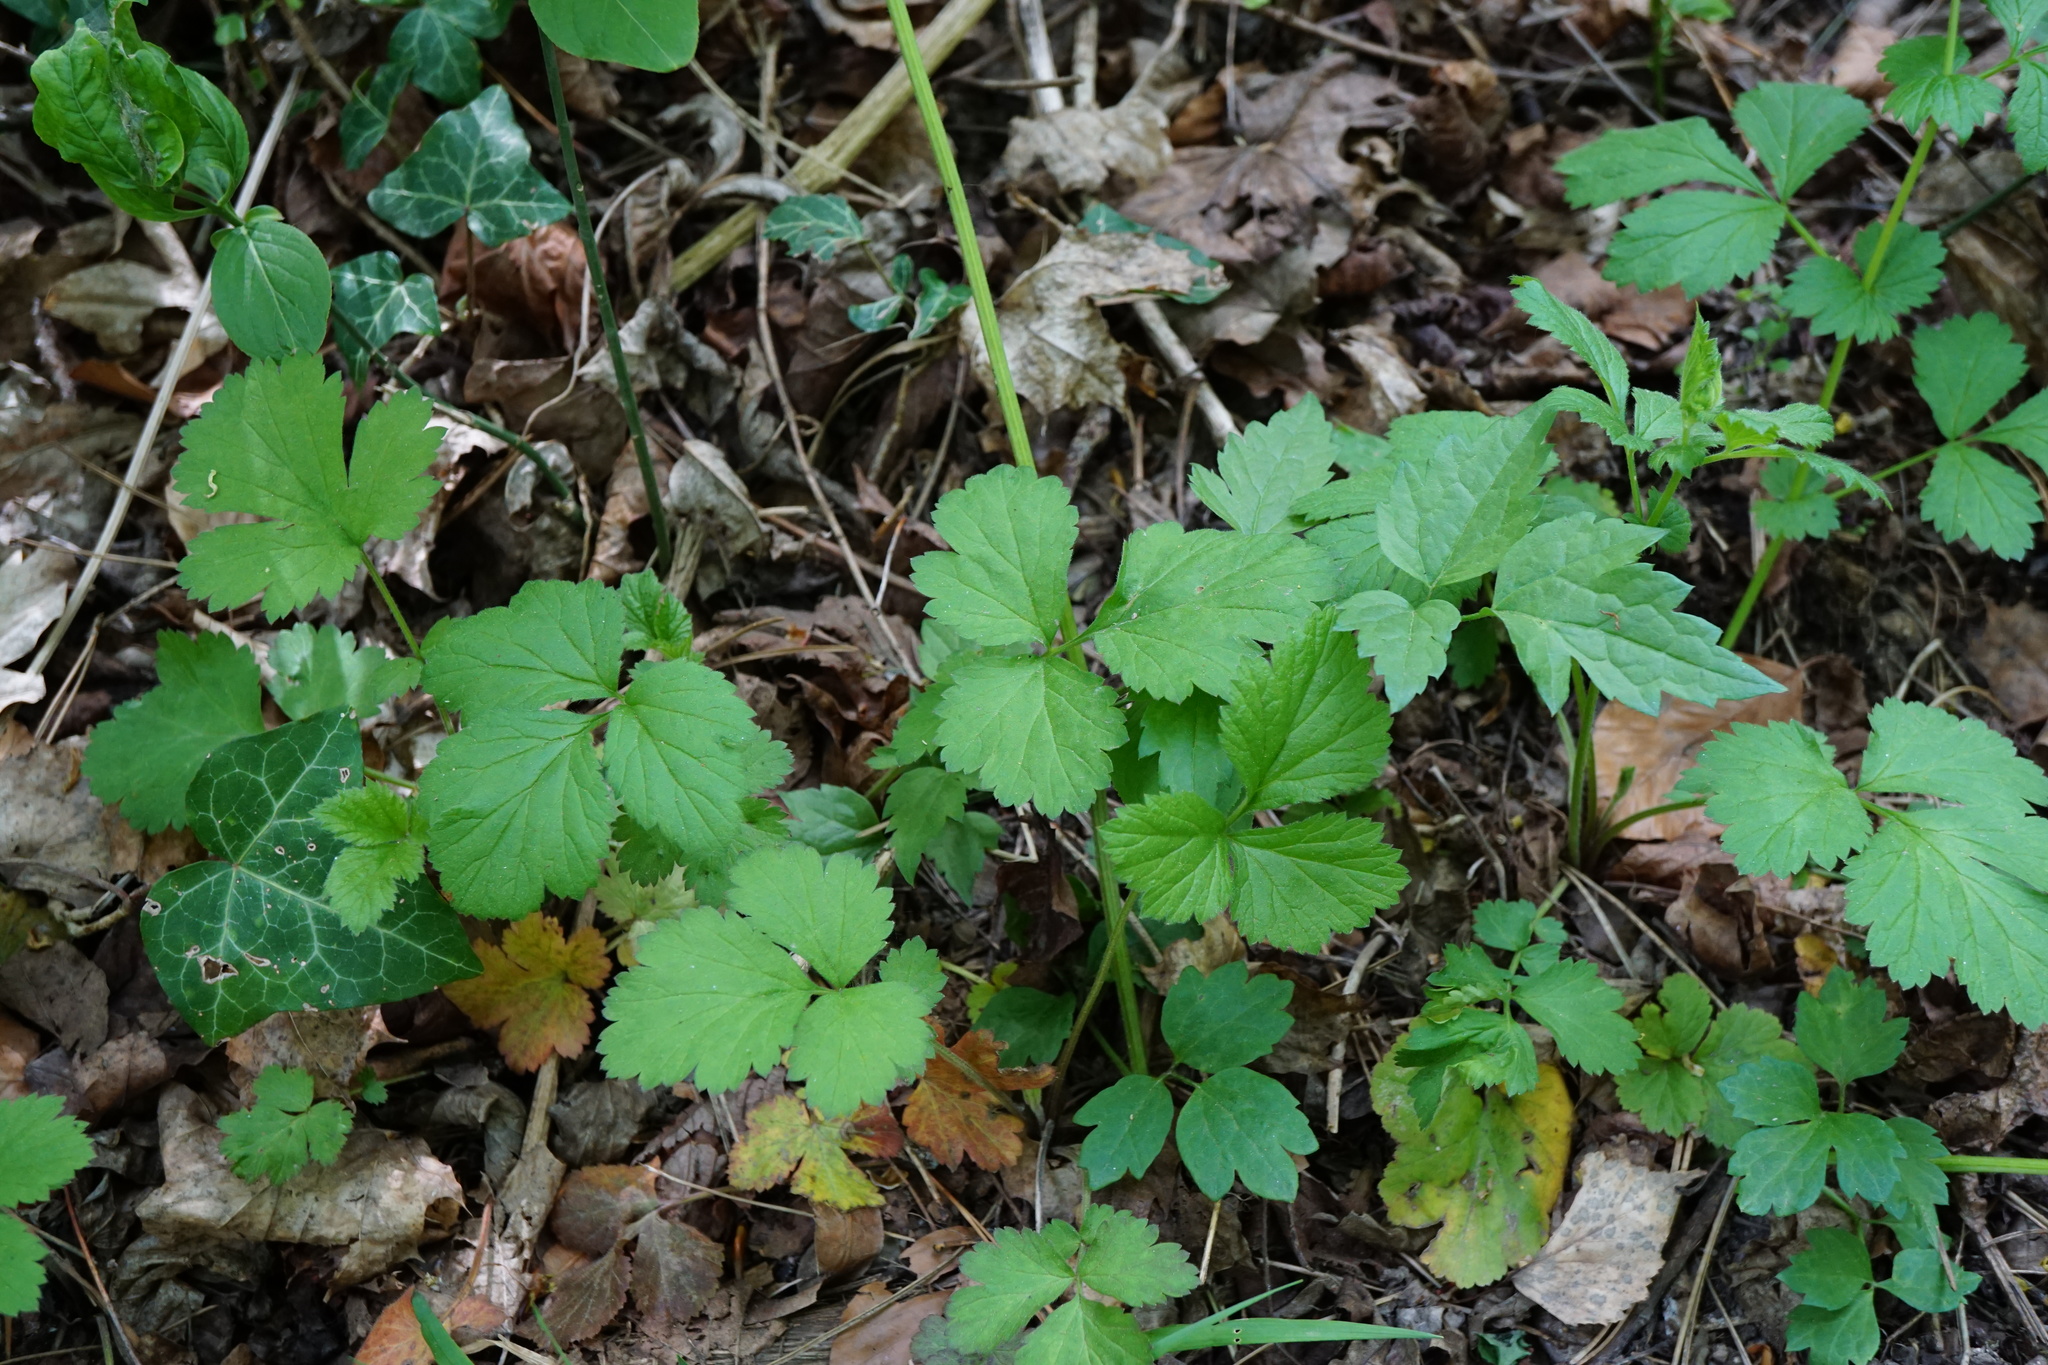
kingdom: Plantae
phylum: Tracheophyta
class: Magnoliopsida
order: Rosales
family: Rosaceae
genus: Geum
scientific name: Geum urbanum
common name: Wood avens
